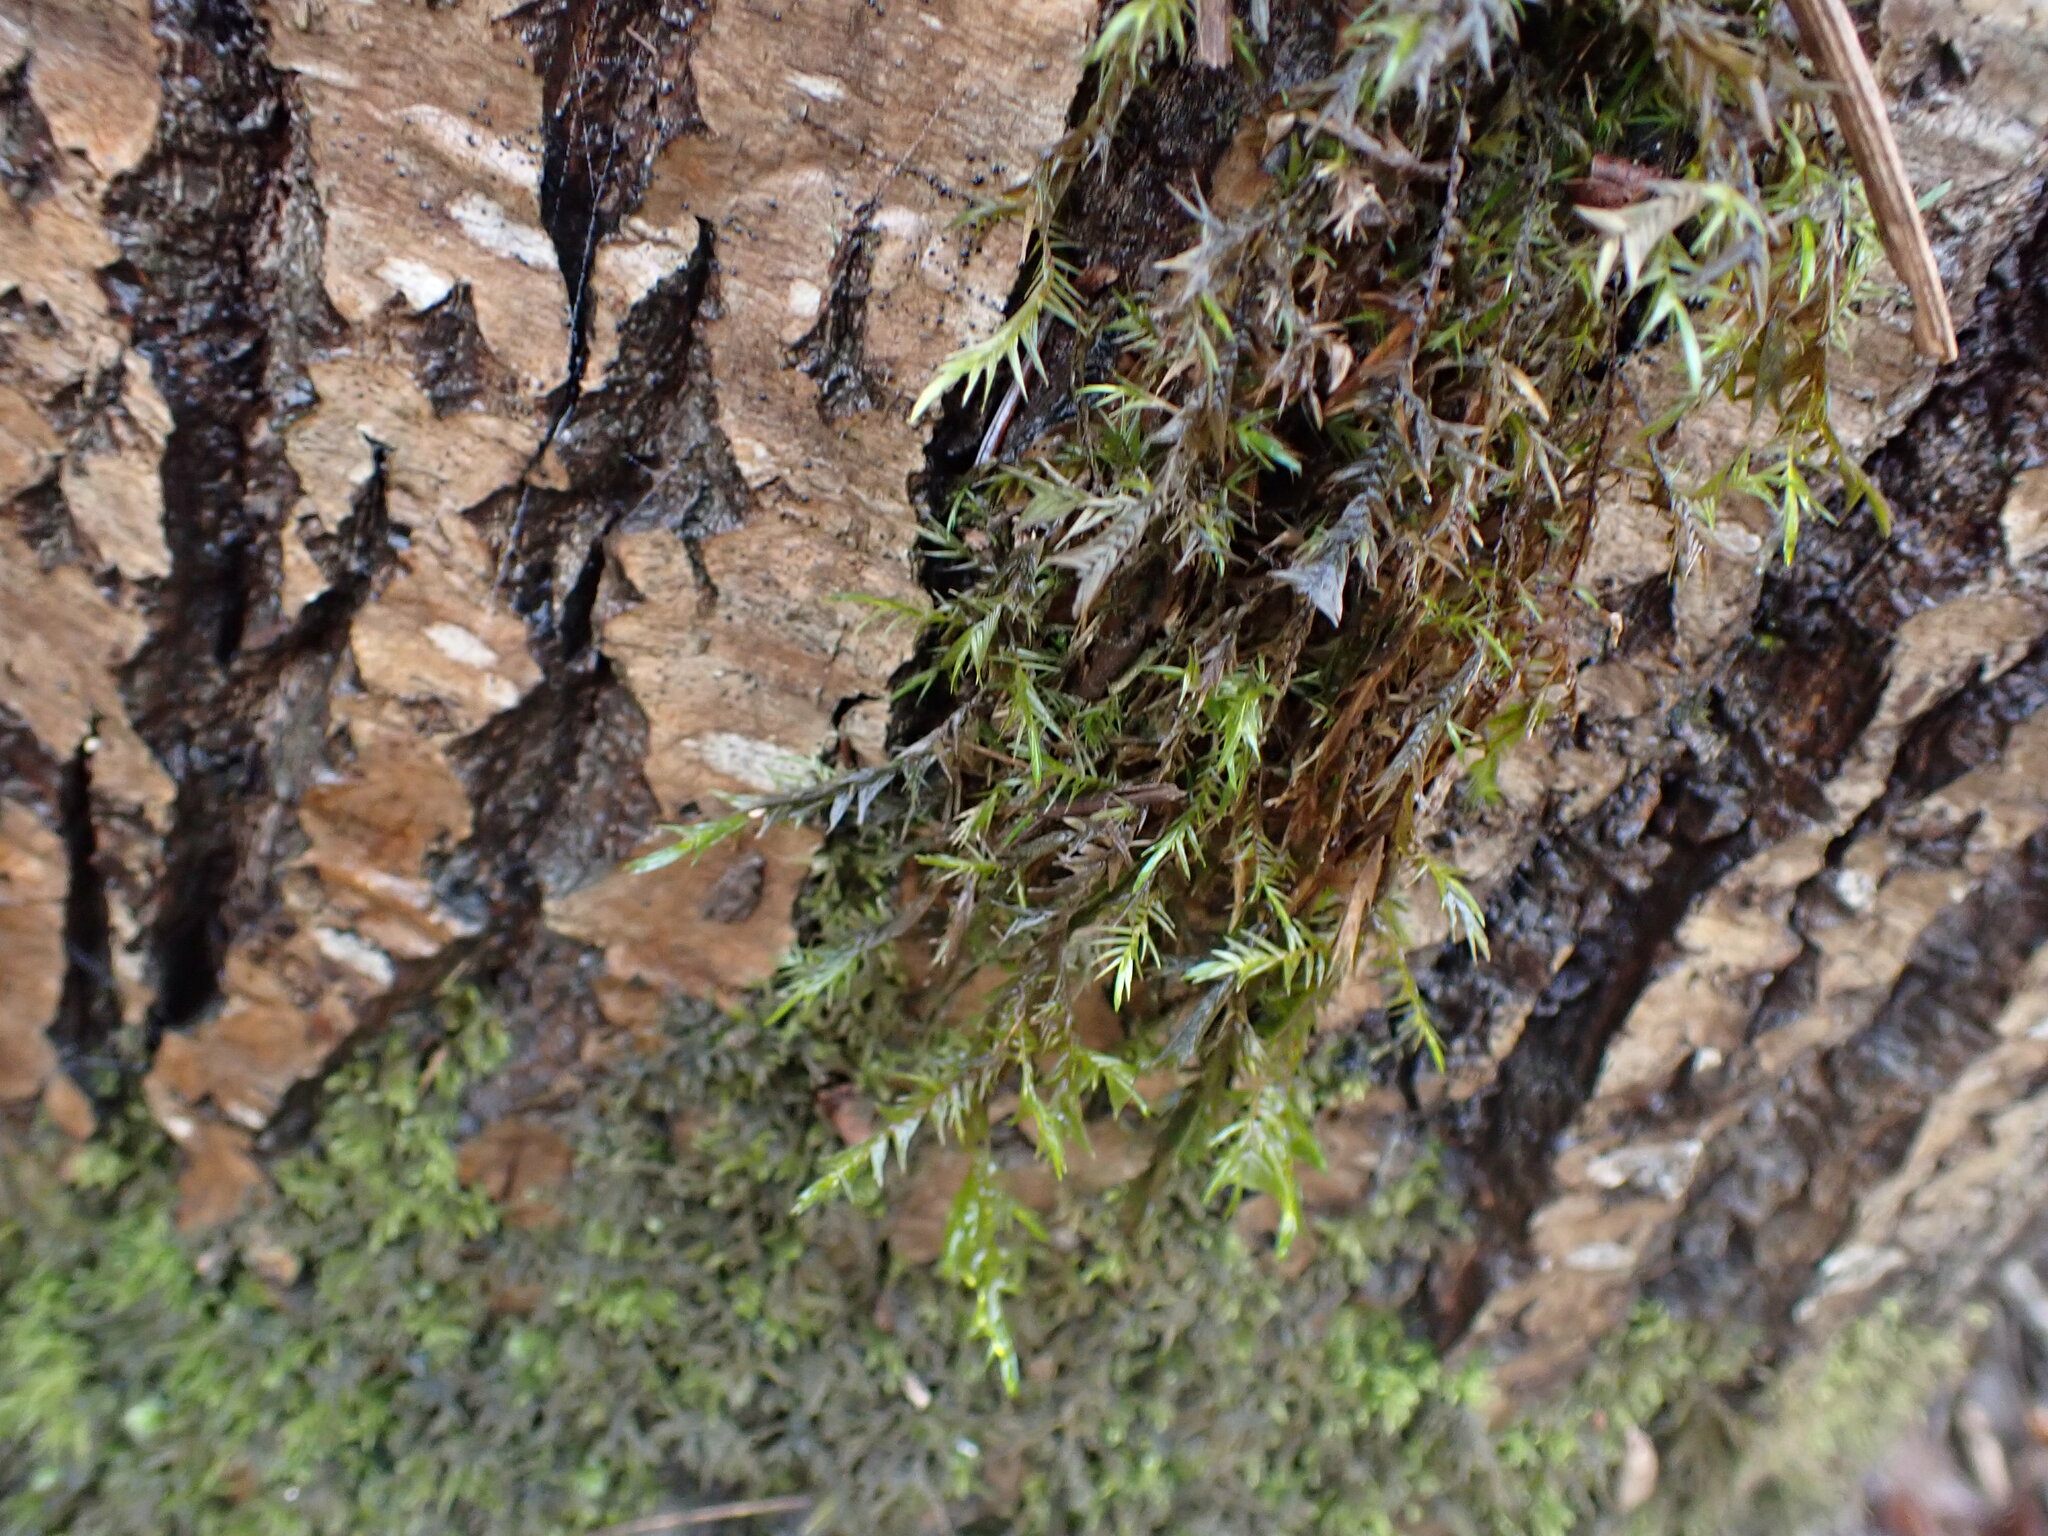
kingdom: Plantae
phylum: Bryophyta
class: Bryopsida
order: Hypnales
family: Fontinalaceae
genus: Fontinalis
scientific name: Fontinalis antipyretica
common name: Greater water-moss
